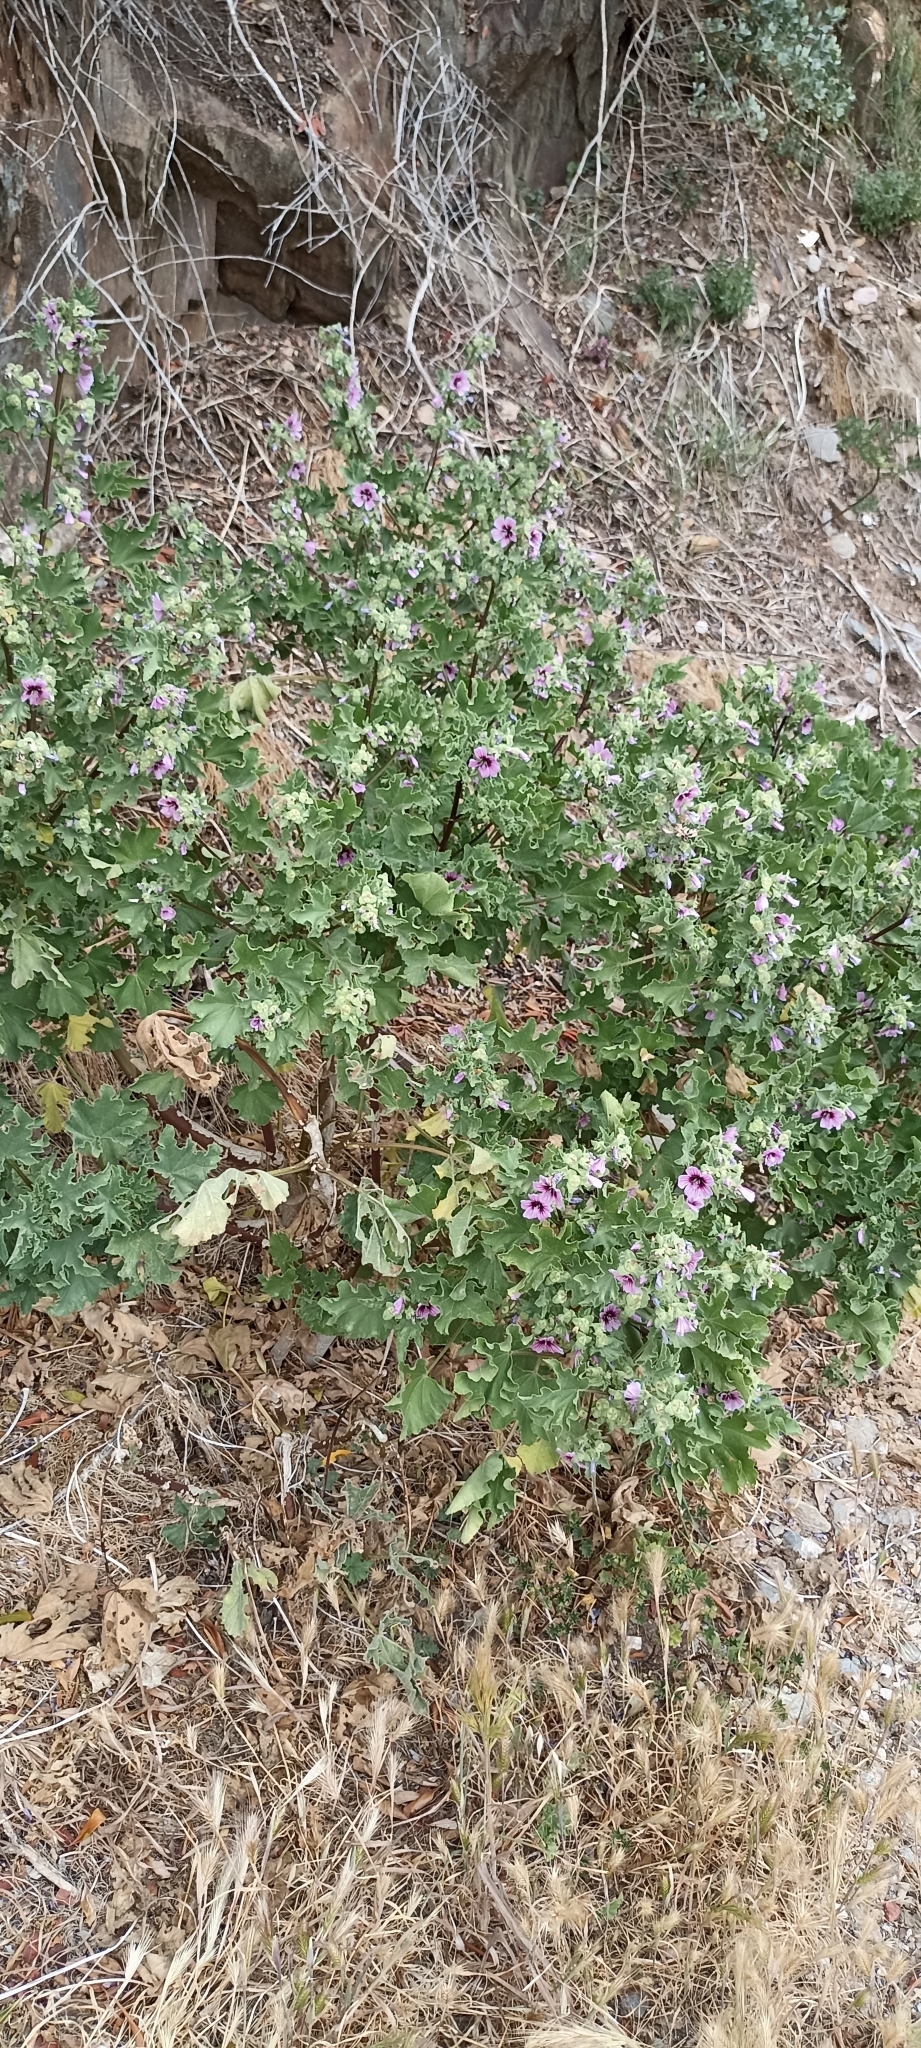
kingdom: Plantae
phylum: Tracheophyta
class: Magnoliopsida
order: Malvales
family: Malvaceae
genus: Malva
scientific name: Malva arborea
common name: Tree mallow
